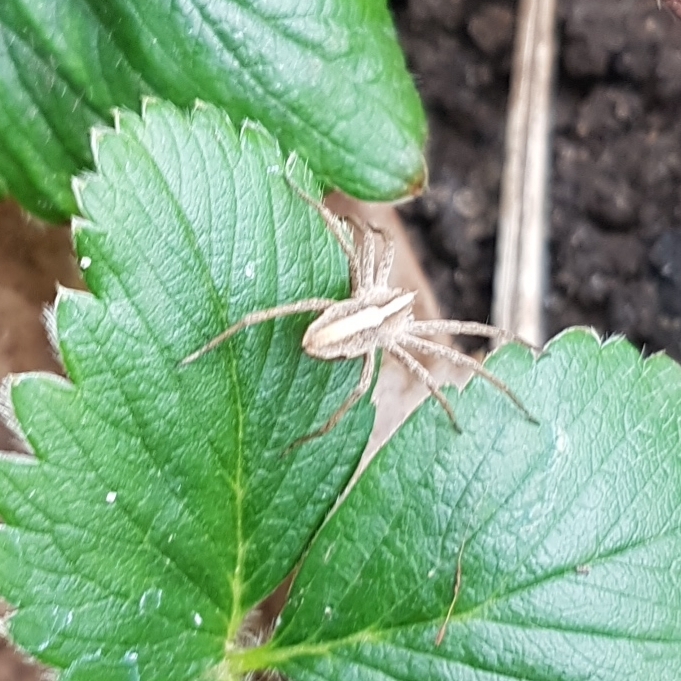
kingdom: Animalia
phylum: Arthropoda
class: Arachnida
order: Araneae
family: Pisauridae
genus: Pisaura
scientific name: Pisaura mirabilis
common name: Tent spider
